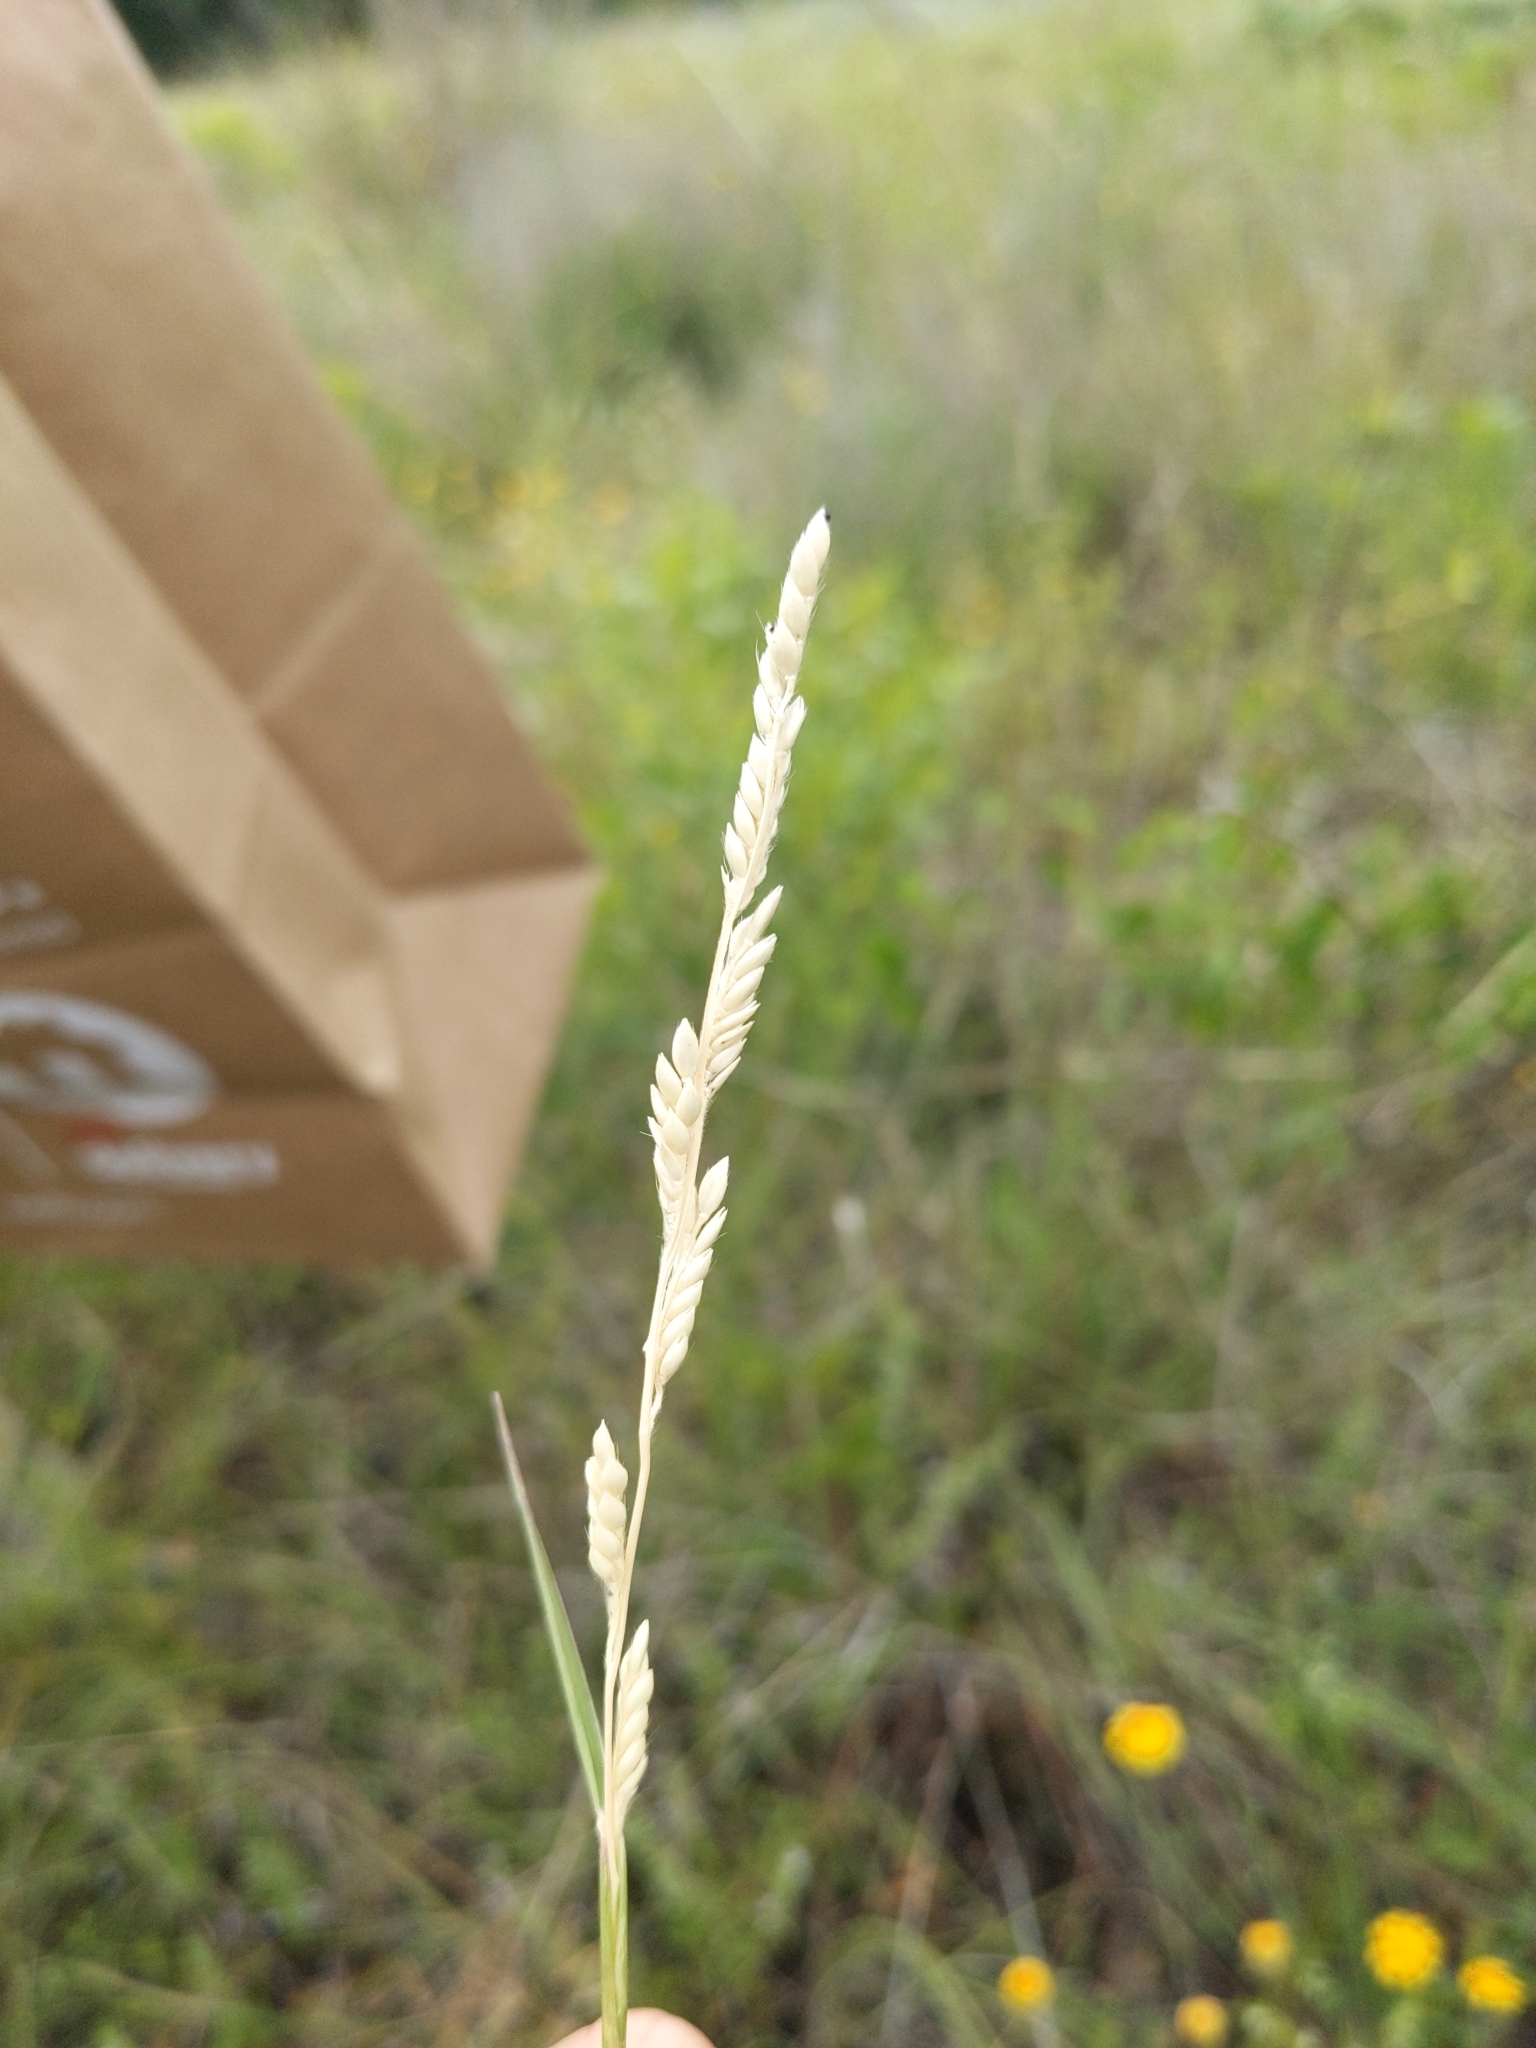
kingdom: Plantae
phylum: Tracheophyta
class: Liliopsida
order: Poales
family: Poaceae
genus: Eriochloa
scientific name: Eriochloa sericea
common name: Texas cup grass
